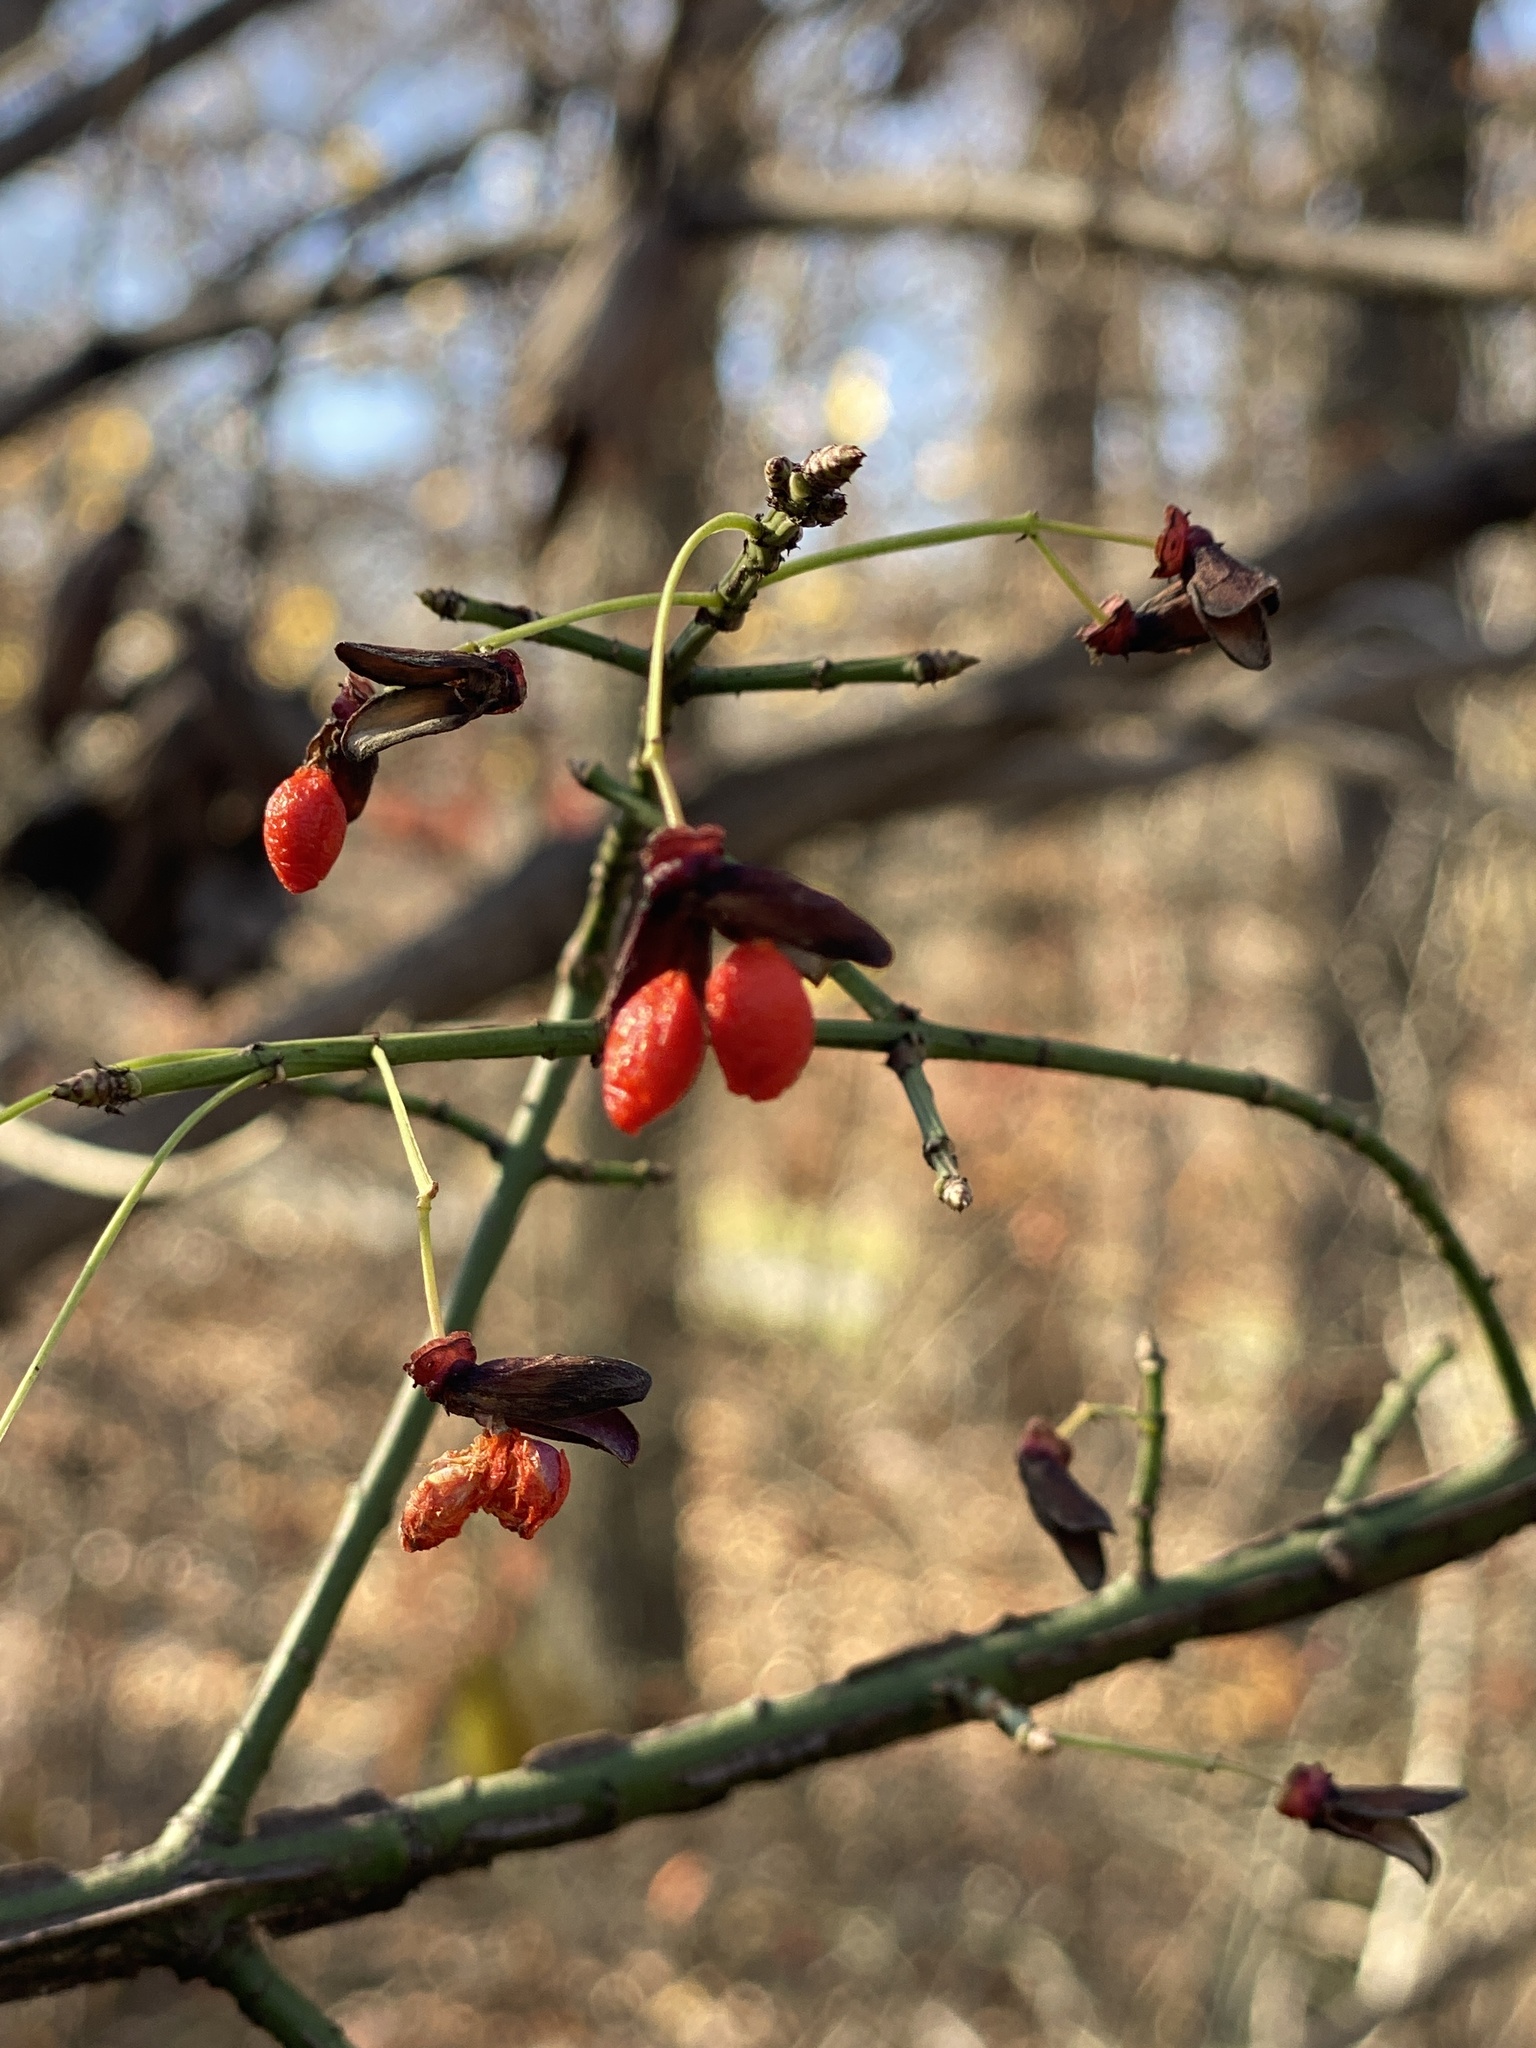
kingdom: Plantae
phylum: Tracheophyta
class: Magnoliopsida
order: Celastrales
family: Celastraceae
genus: Euonymus
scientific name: Euonymus alatus
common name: Winged euonymus
